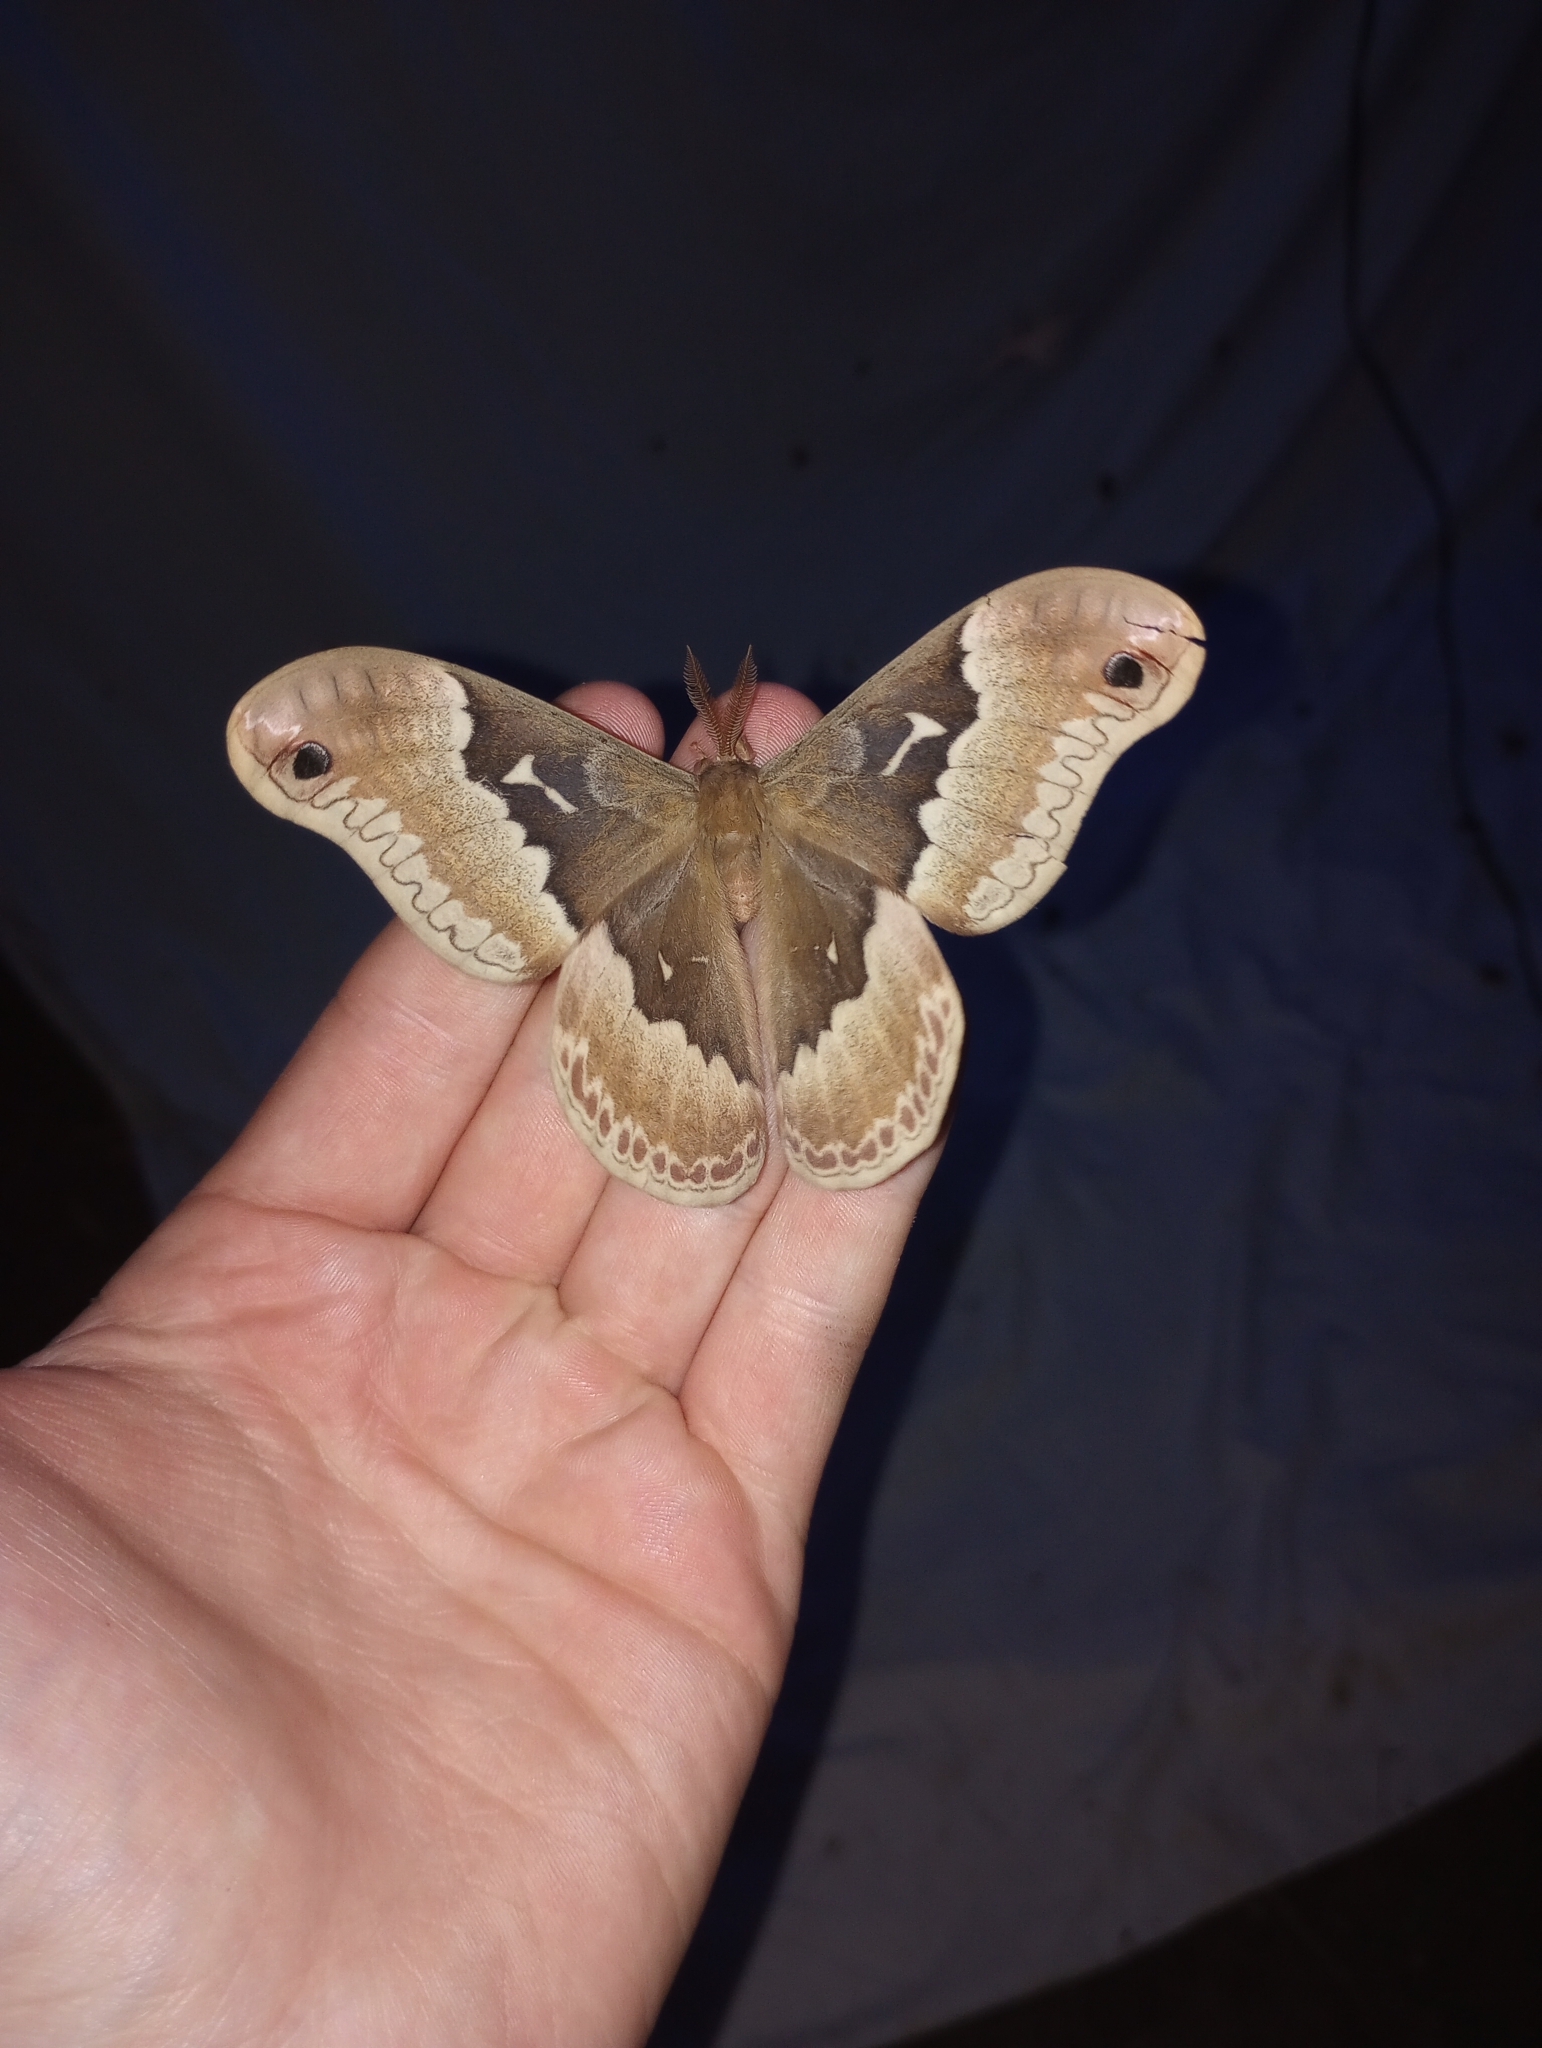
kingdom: Animalia
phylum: Arthropoda
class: Insecta
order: Lepidoptera
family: Saturniidae
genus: Callosamia
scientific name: Callosamia angulifera
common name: Tulip tree silkmoth
